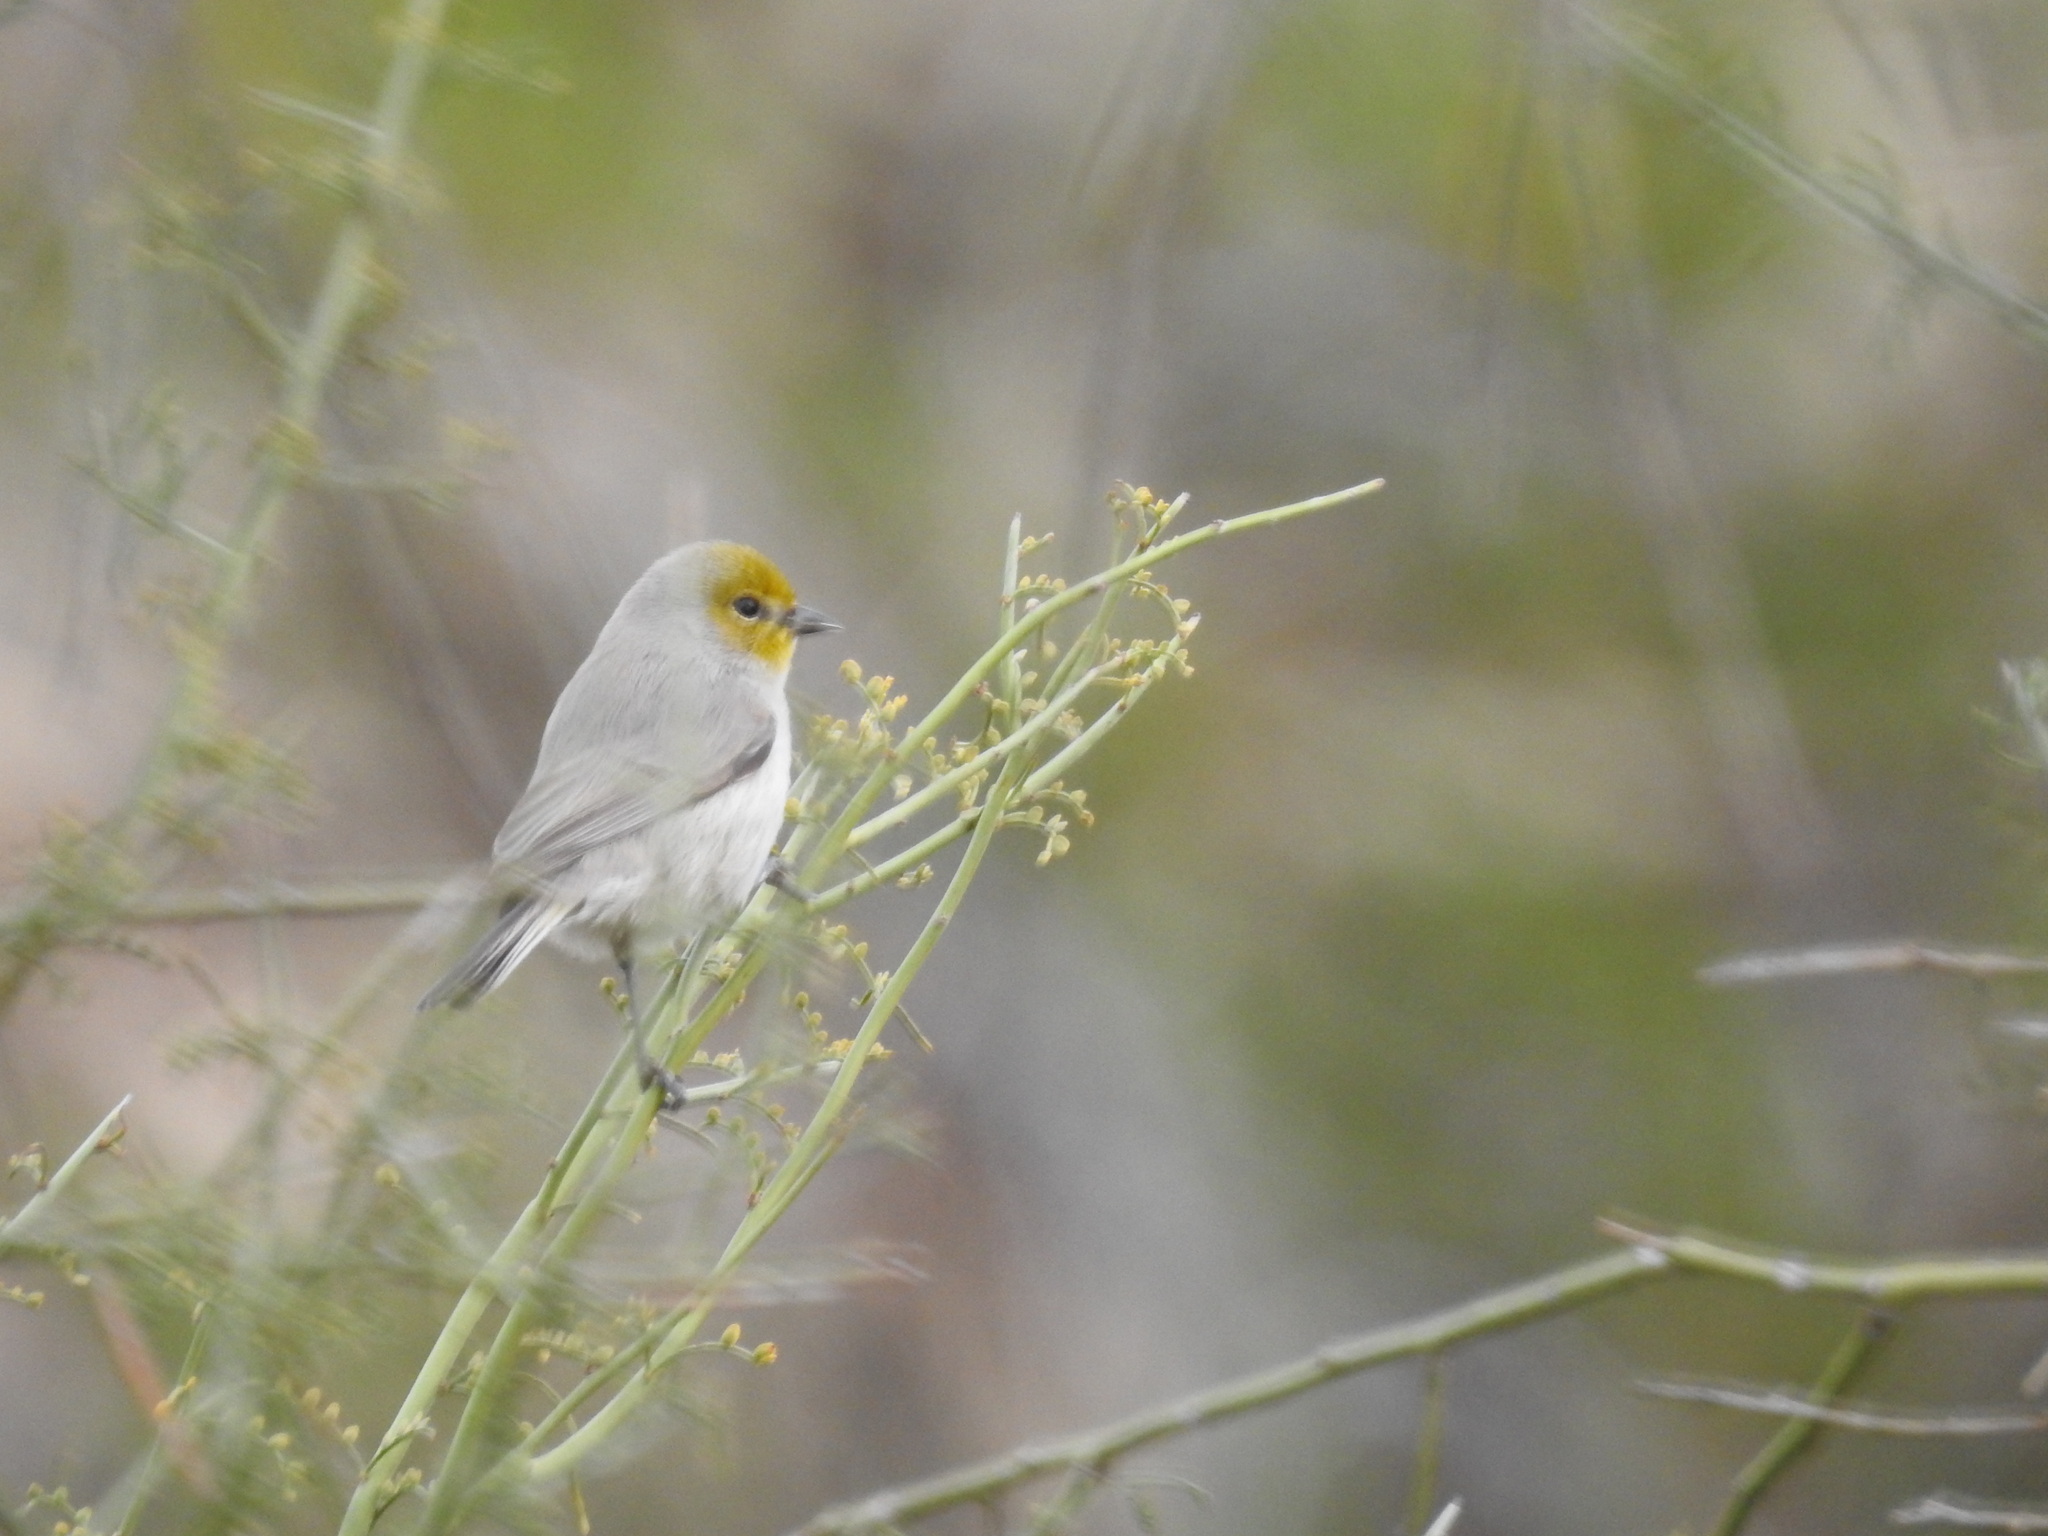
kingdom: Animalia
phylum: Chordata
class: Aves
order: Passeriformes
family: Remizidae
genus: Auriparus
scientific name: Auriparus flaviceps
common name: Verdin
